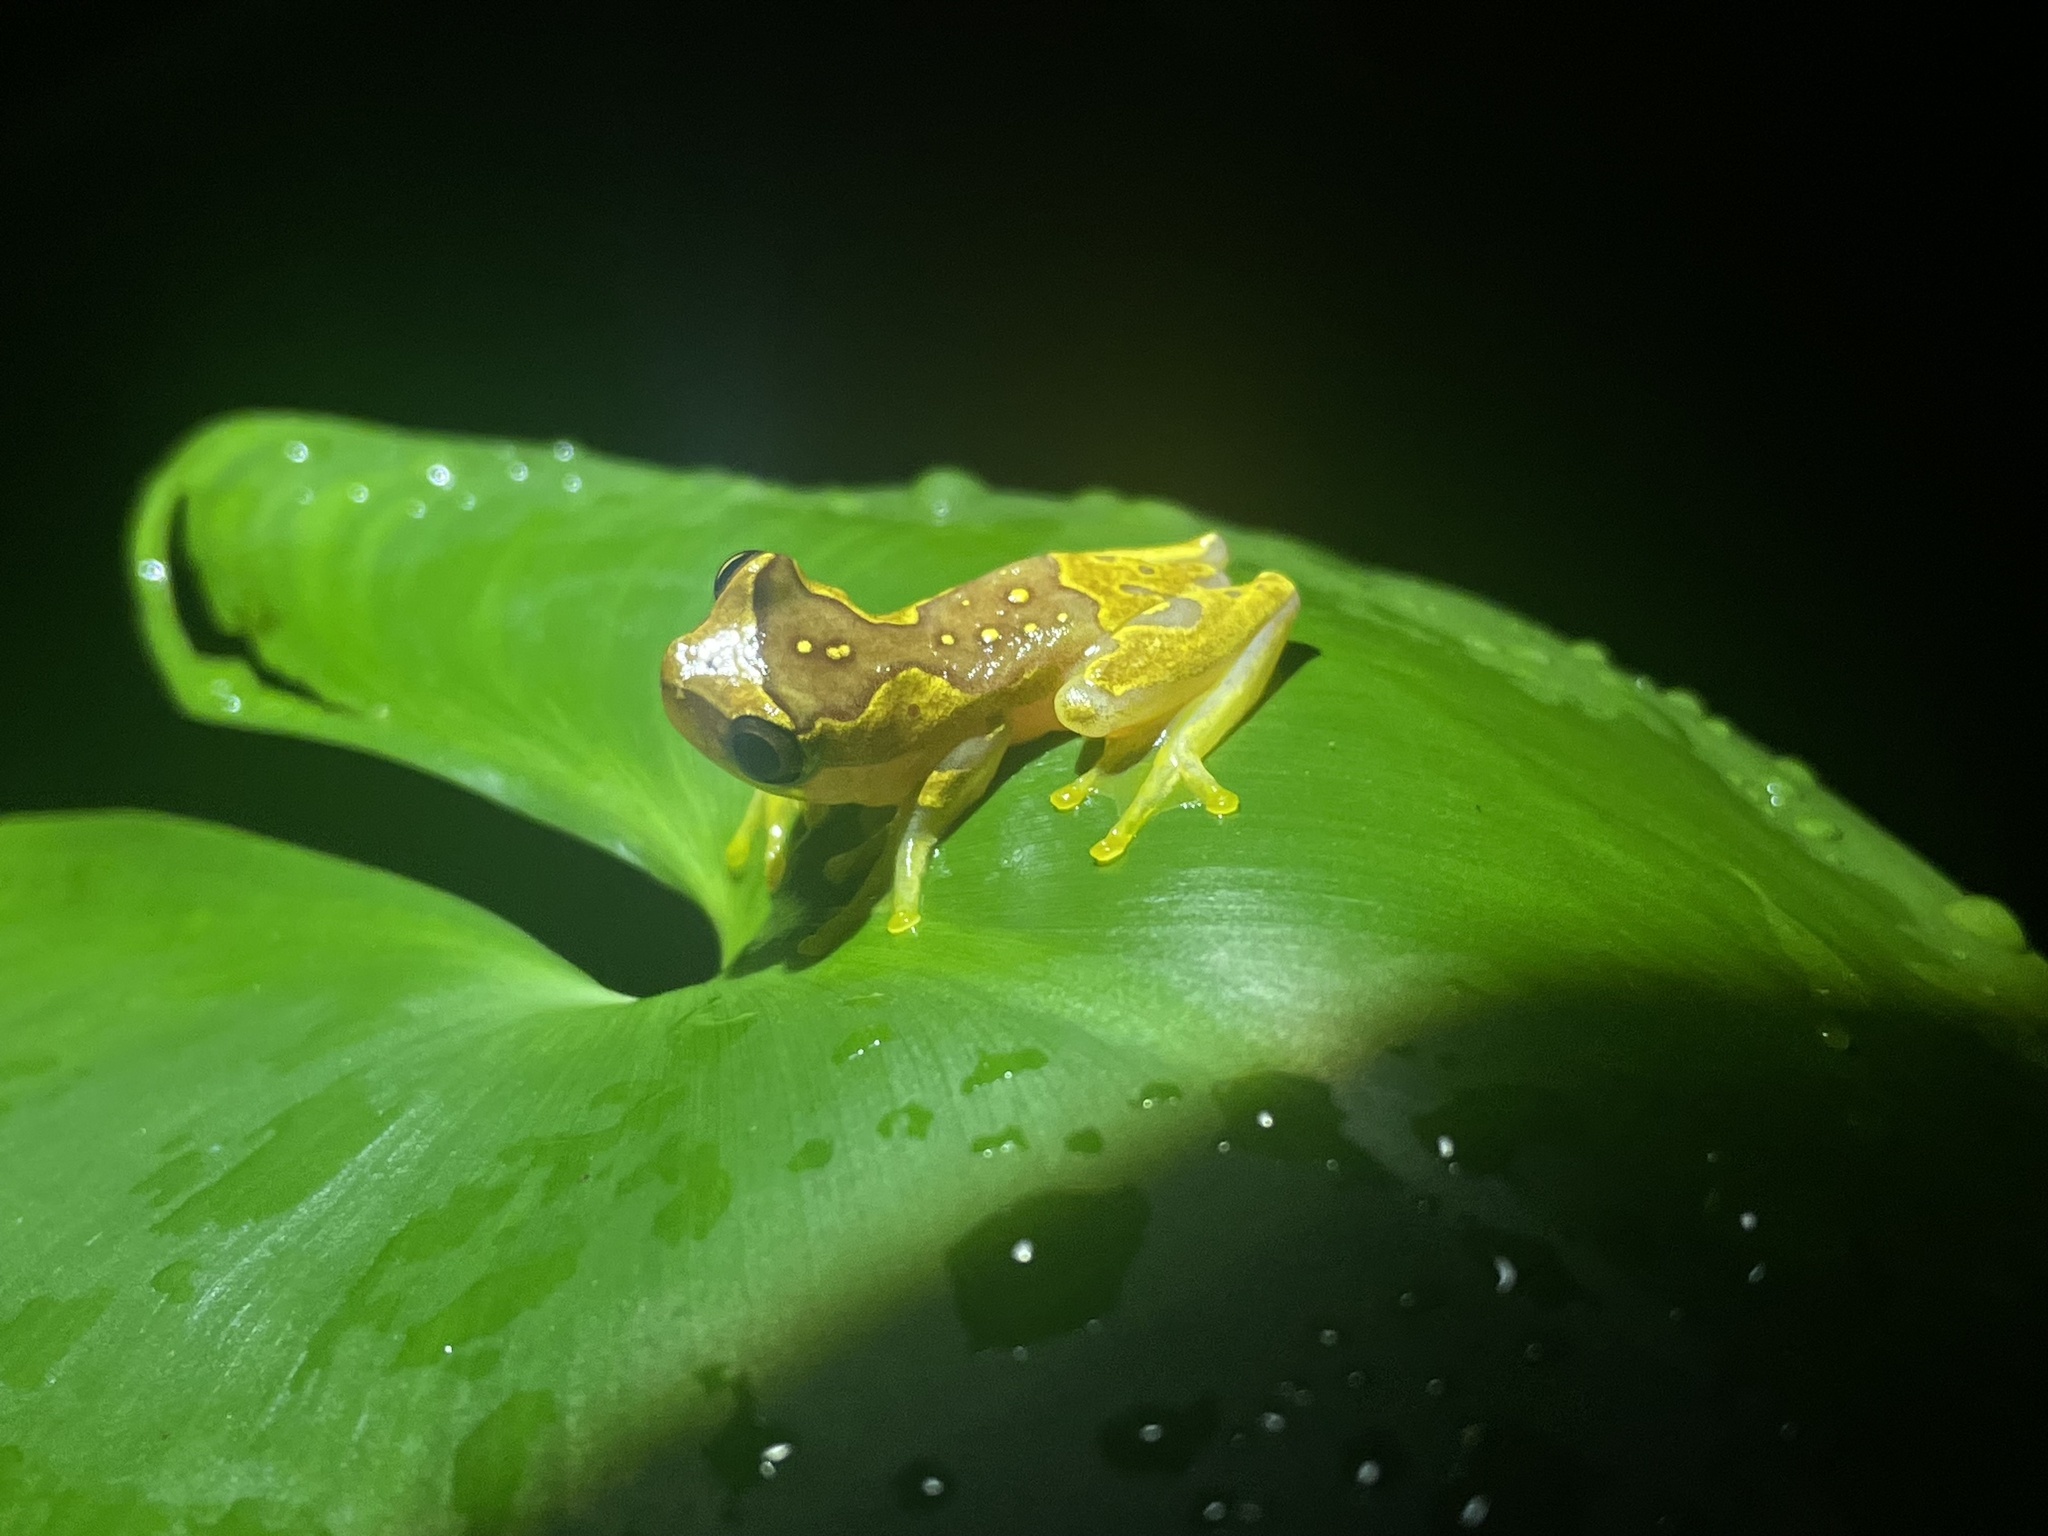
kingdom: Animalia
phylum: Chordata
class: Amphibia
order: Anura
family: Hylidae
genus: Dendropsophus
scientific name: Dendropsophus ebraccatus
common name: Hourglass treefrog
